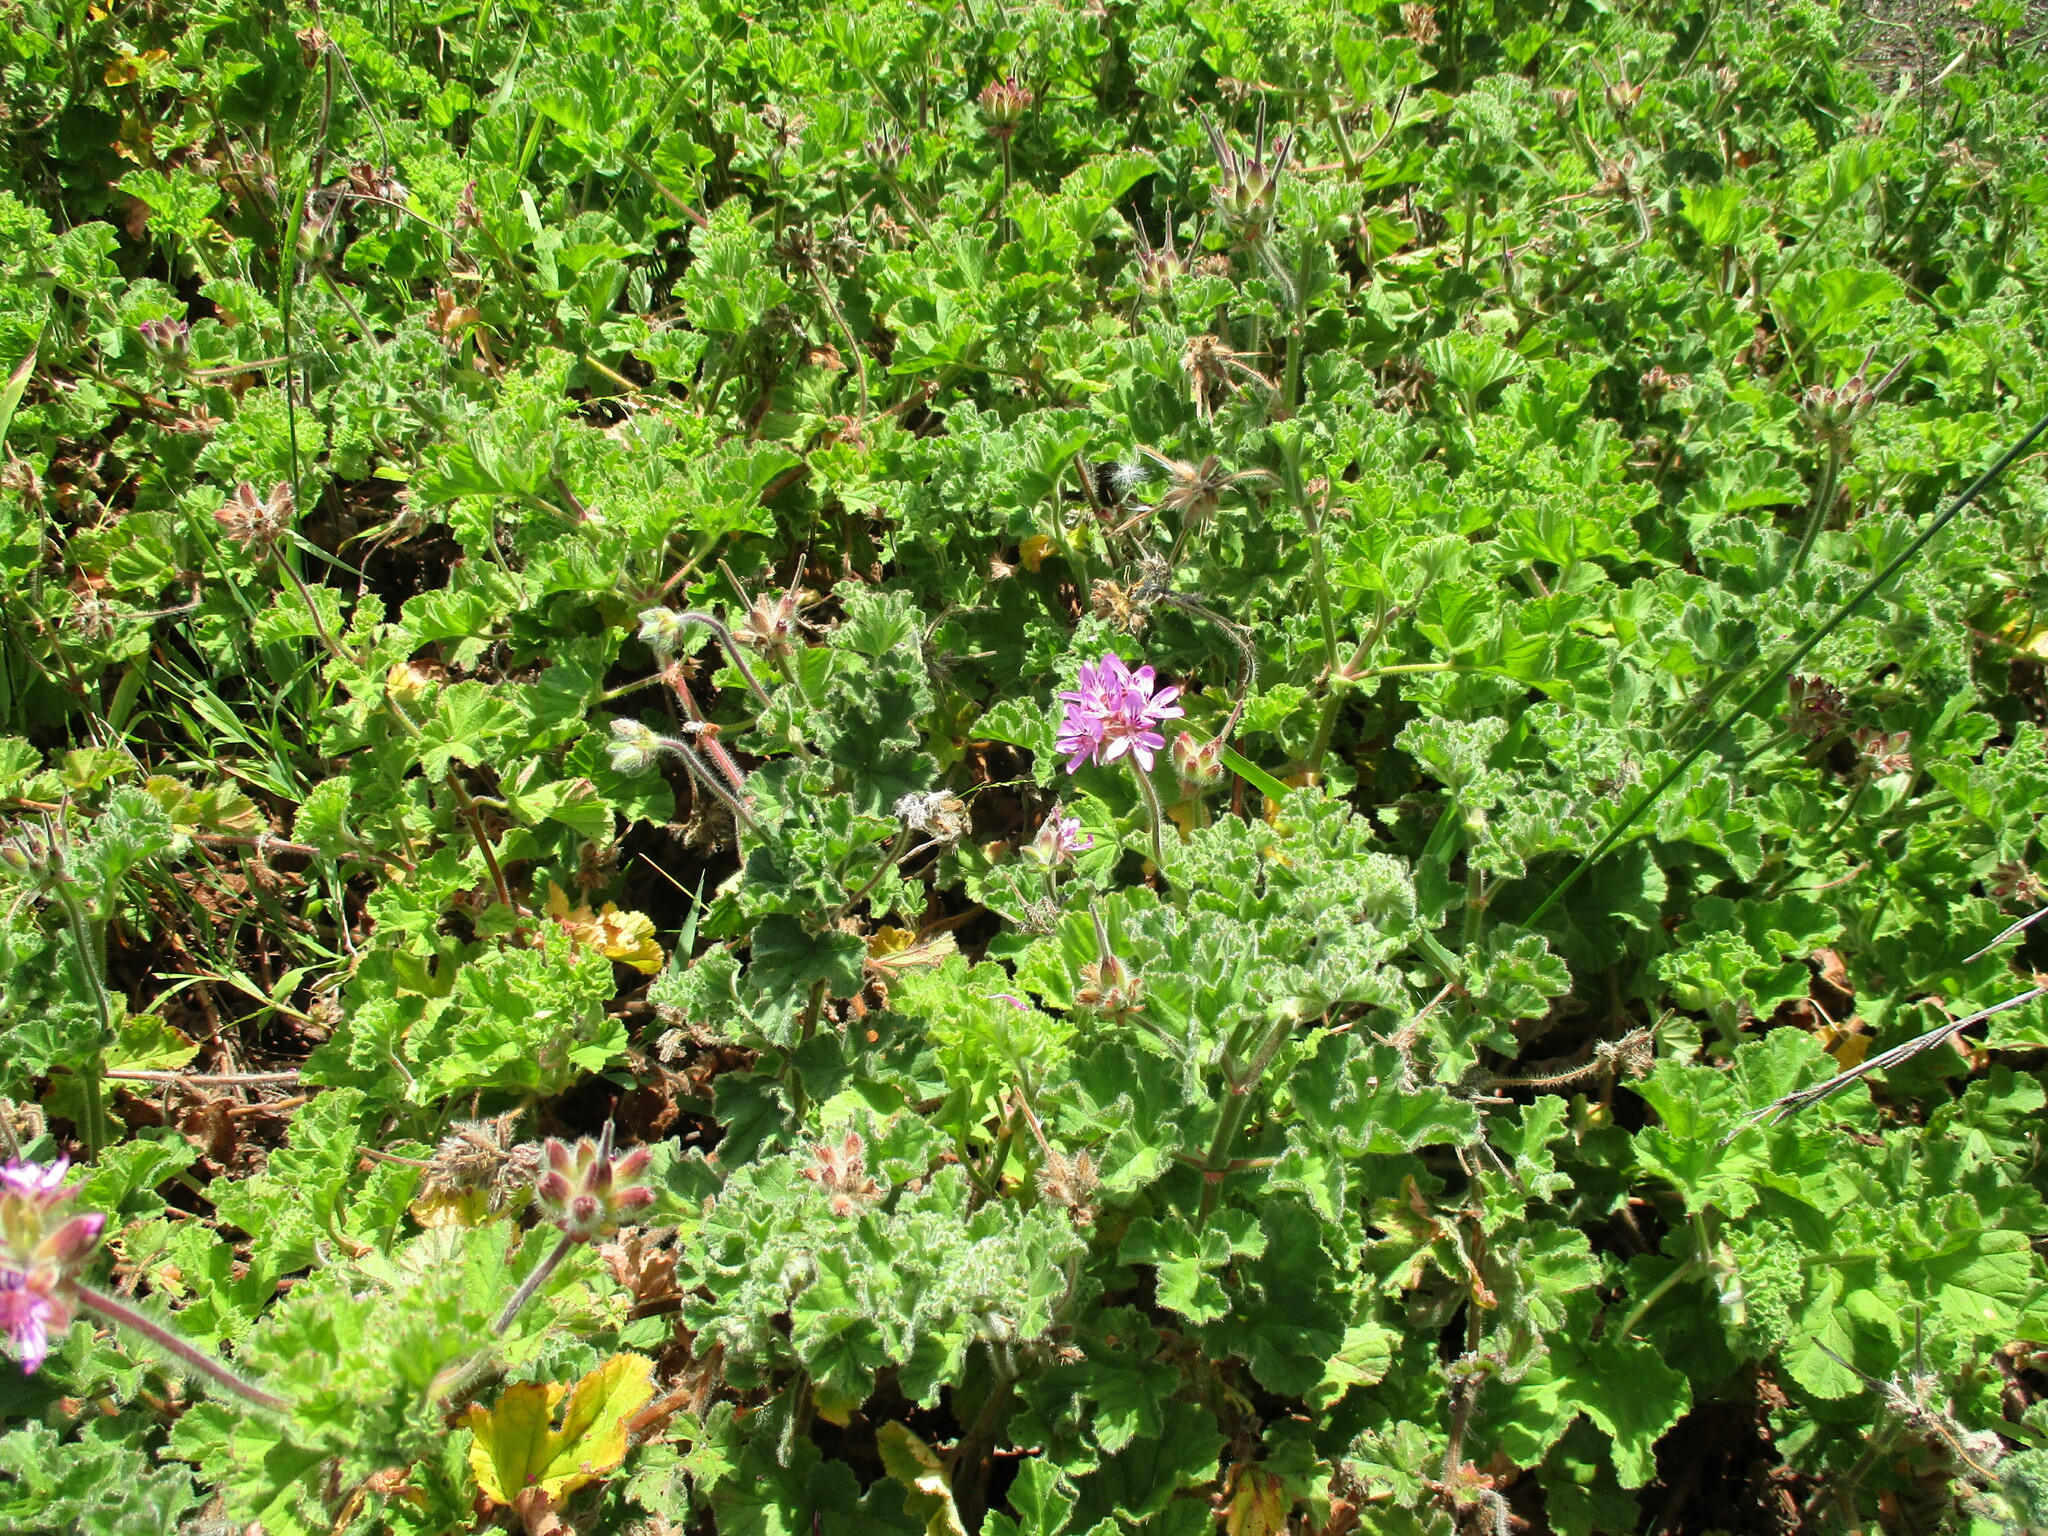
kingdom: Plantae
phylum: Tracheophyta
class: Magnoliopsida
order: Geraniales
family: Geraniaceae
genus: Pelargonium
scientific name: Pelargonium capitatum
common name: Rose scented geranium
